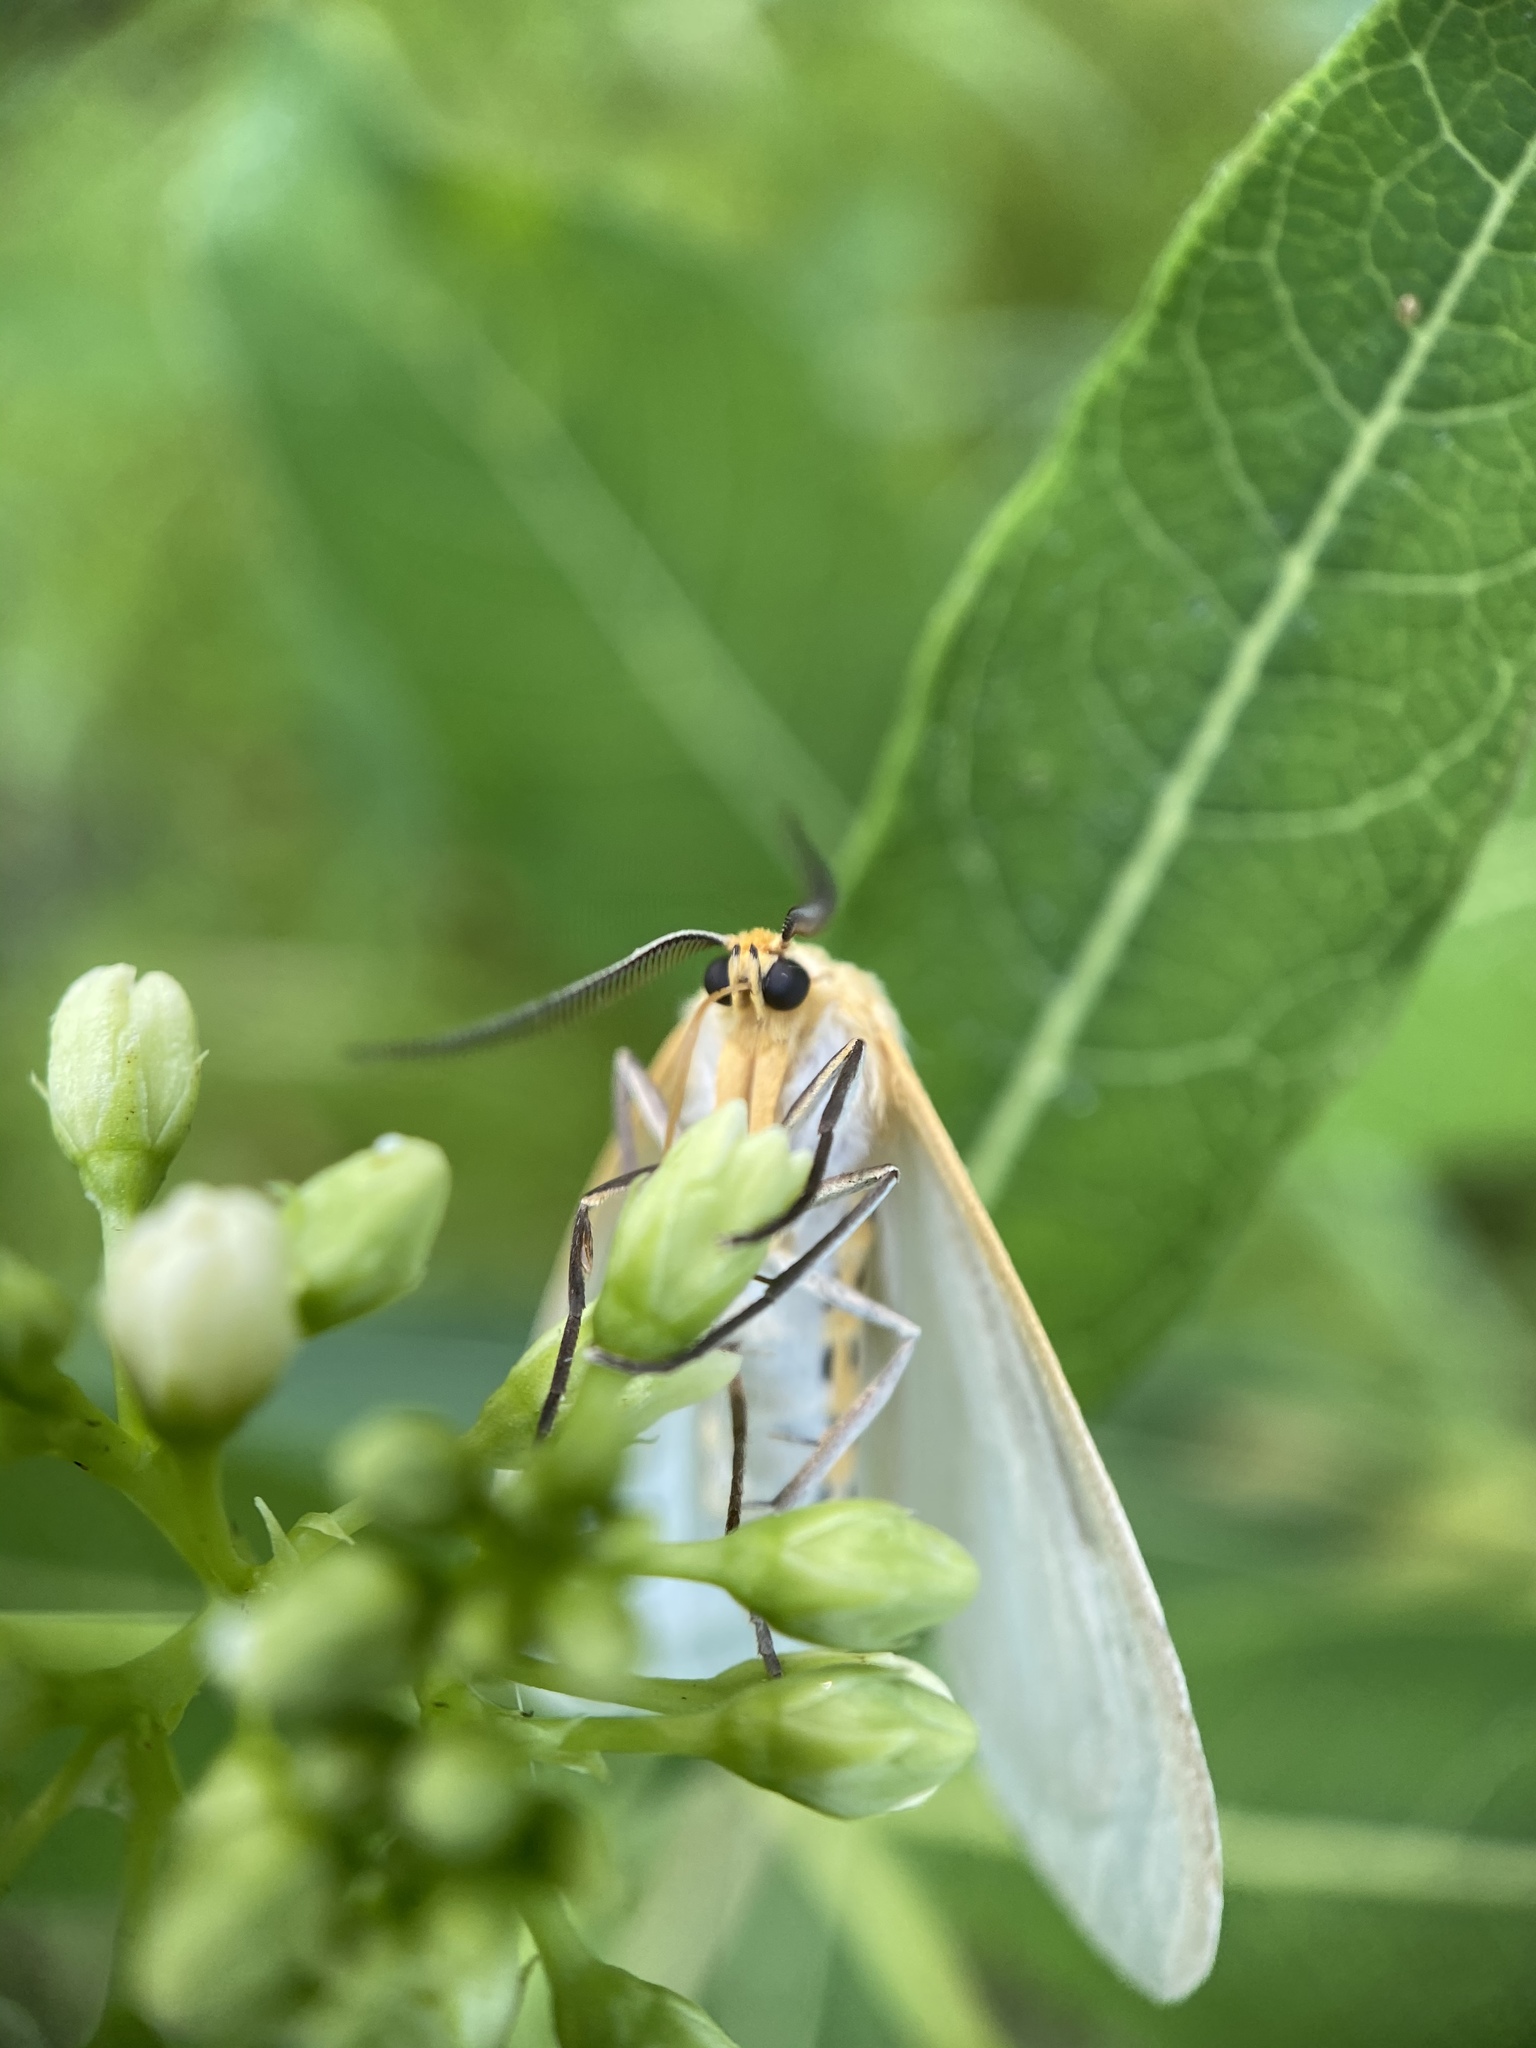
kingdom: Animalia
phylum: Arthropoda
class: Insecta
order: Lepidoptera
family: Erebidae
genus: Cycnia
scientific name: Cycnia tenera
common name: Delicate cycnia moth
